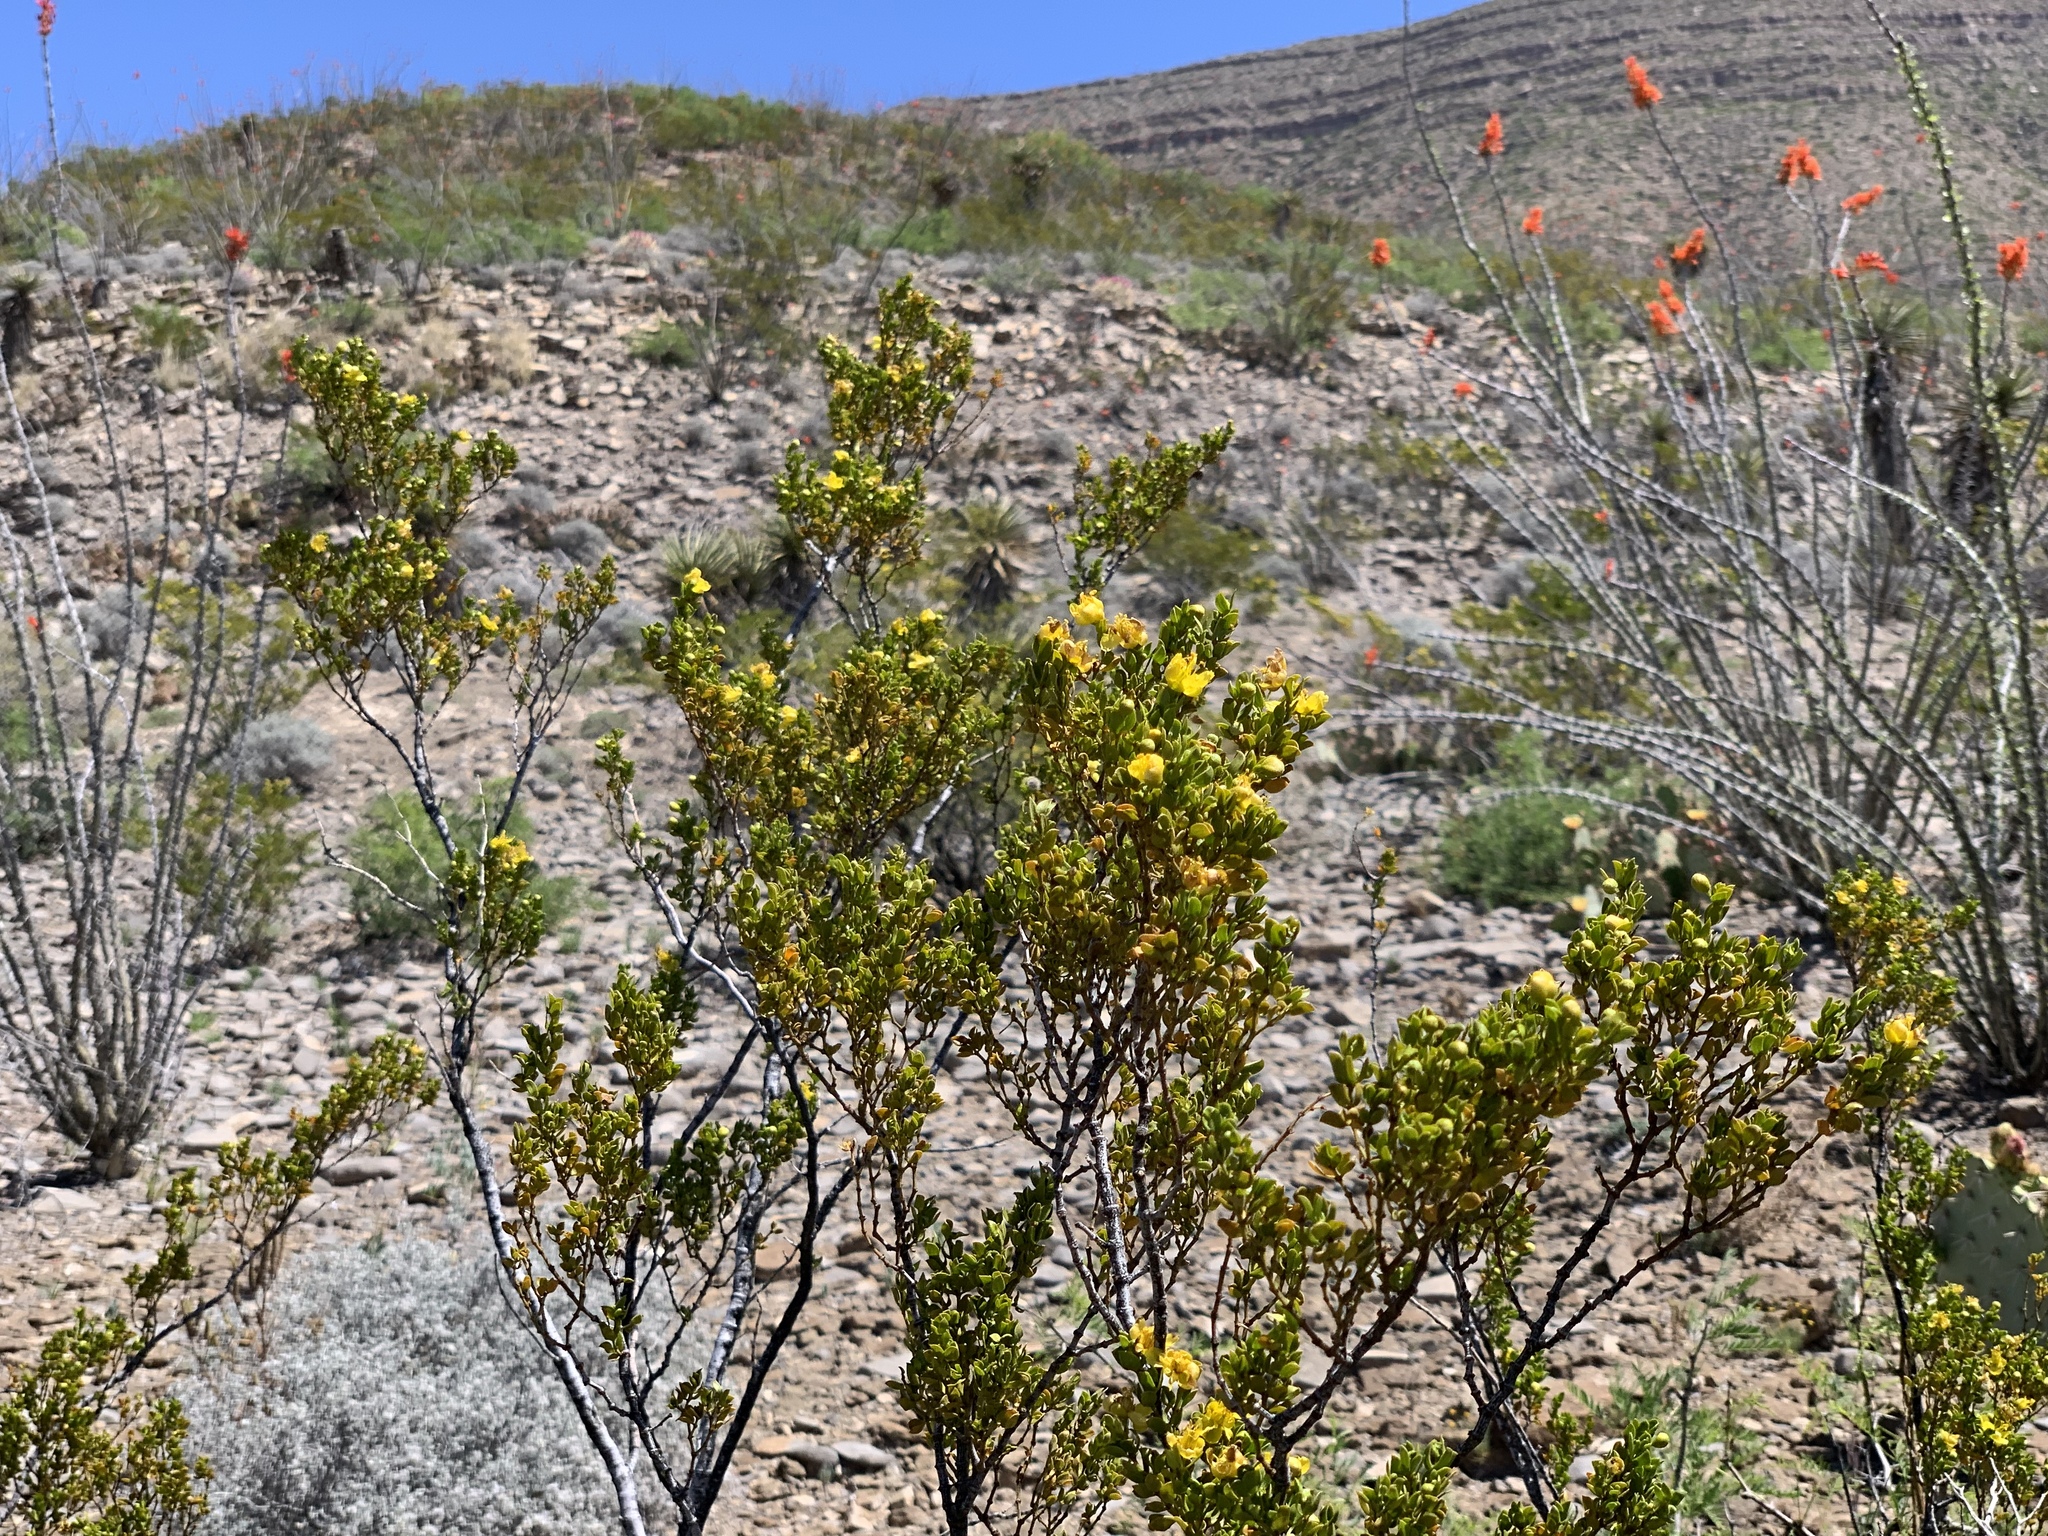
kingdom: Plantae
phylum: Tracheophyta
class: Magnoliopsida
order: Zygophyllales
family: Zygophyllaceae
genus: Larrea
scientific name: Larrea tridentata
